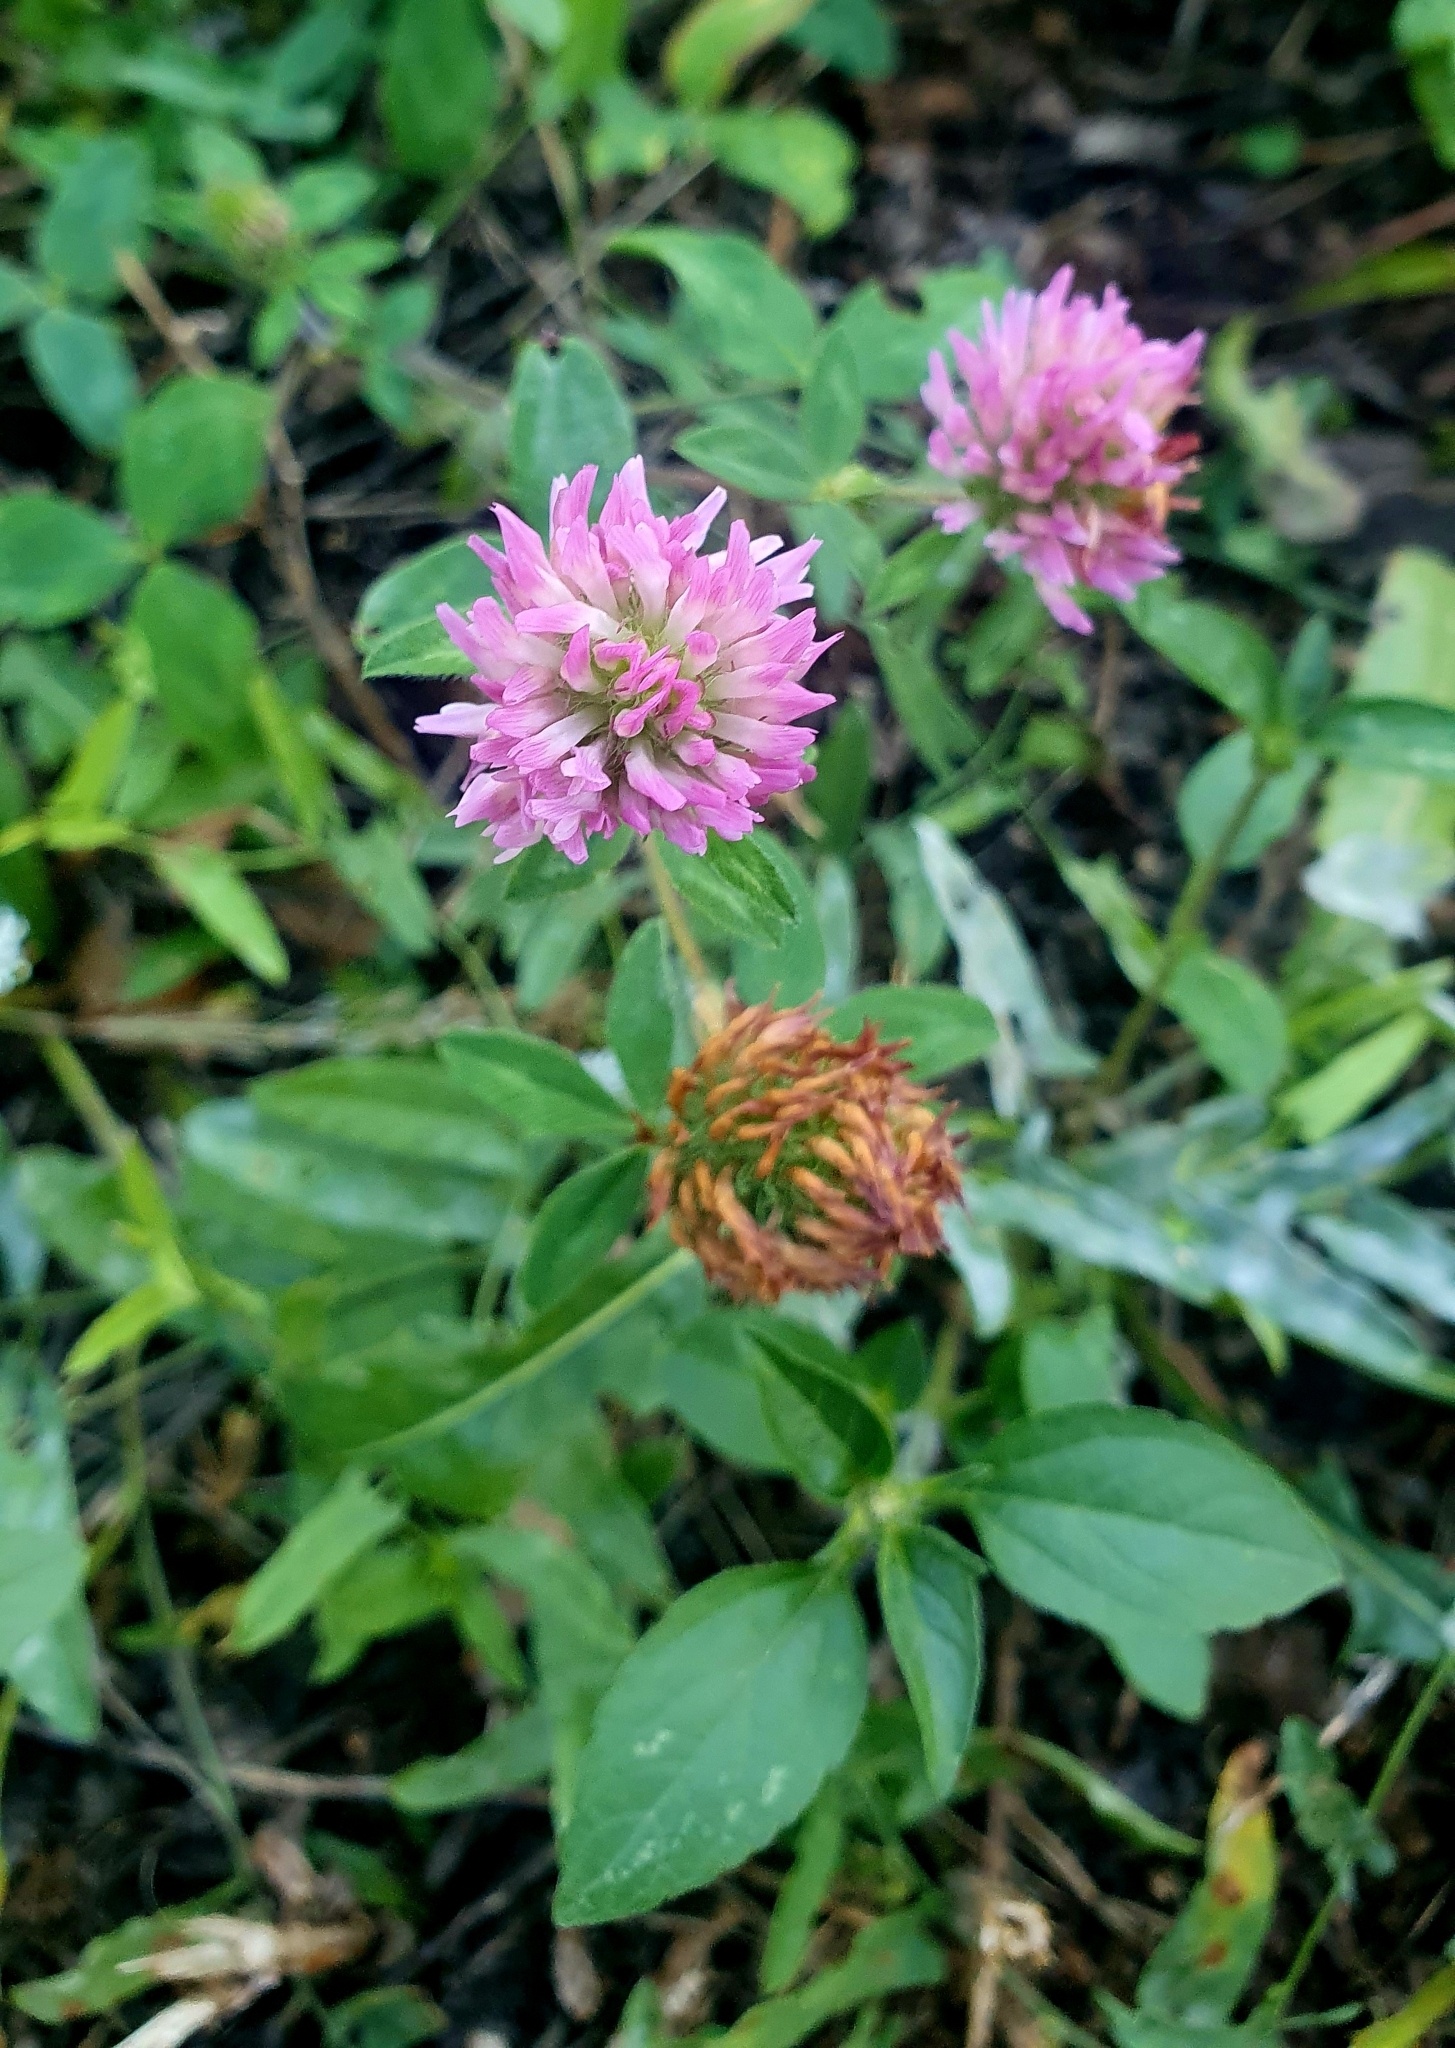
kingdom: Plantae
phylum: Tracheophyta
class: Magnoliopsida
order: Fabales
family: Fabaceae
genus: Trifolium
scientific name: Trifolium pratense
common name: Red clover
